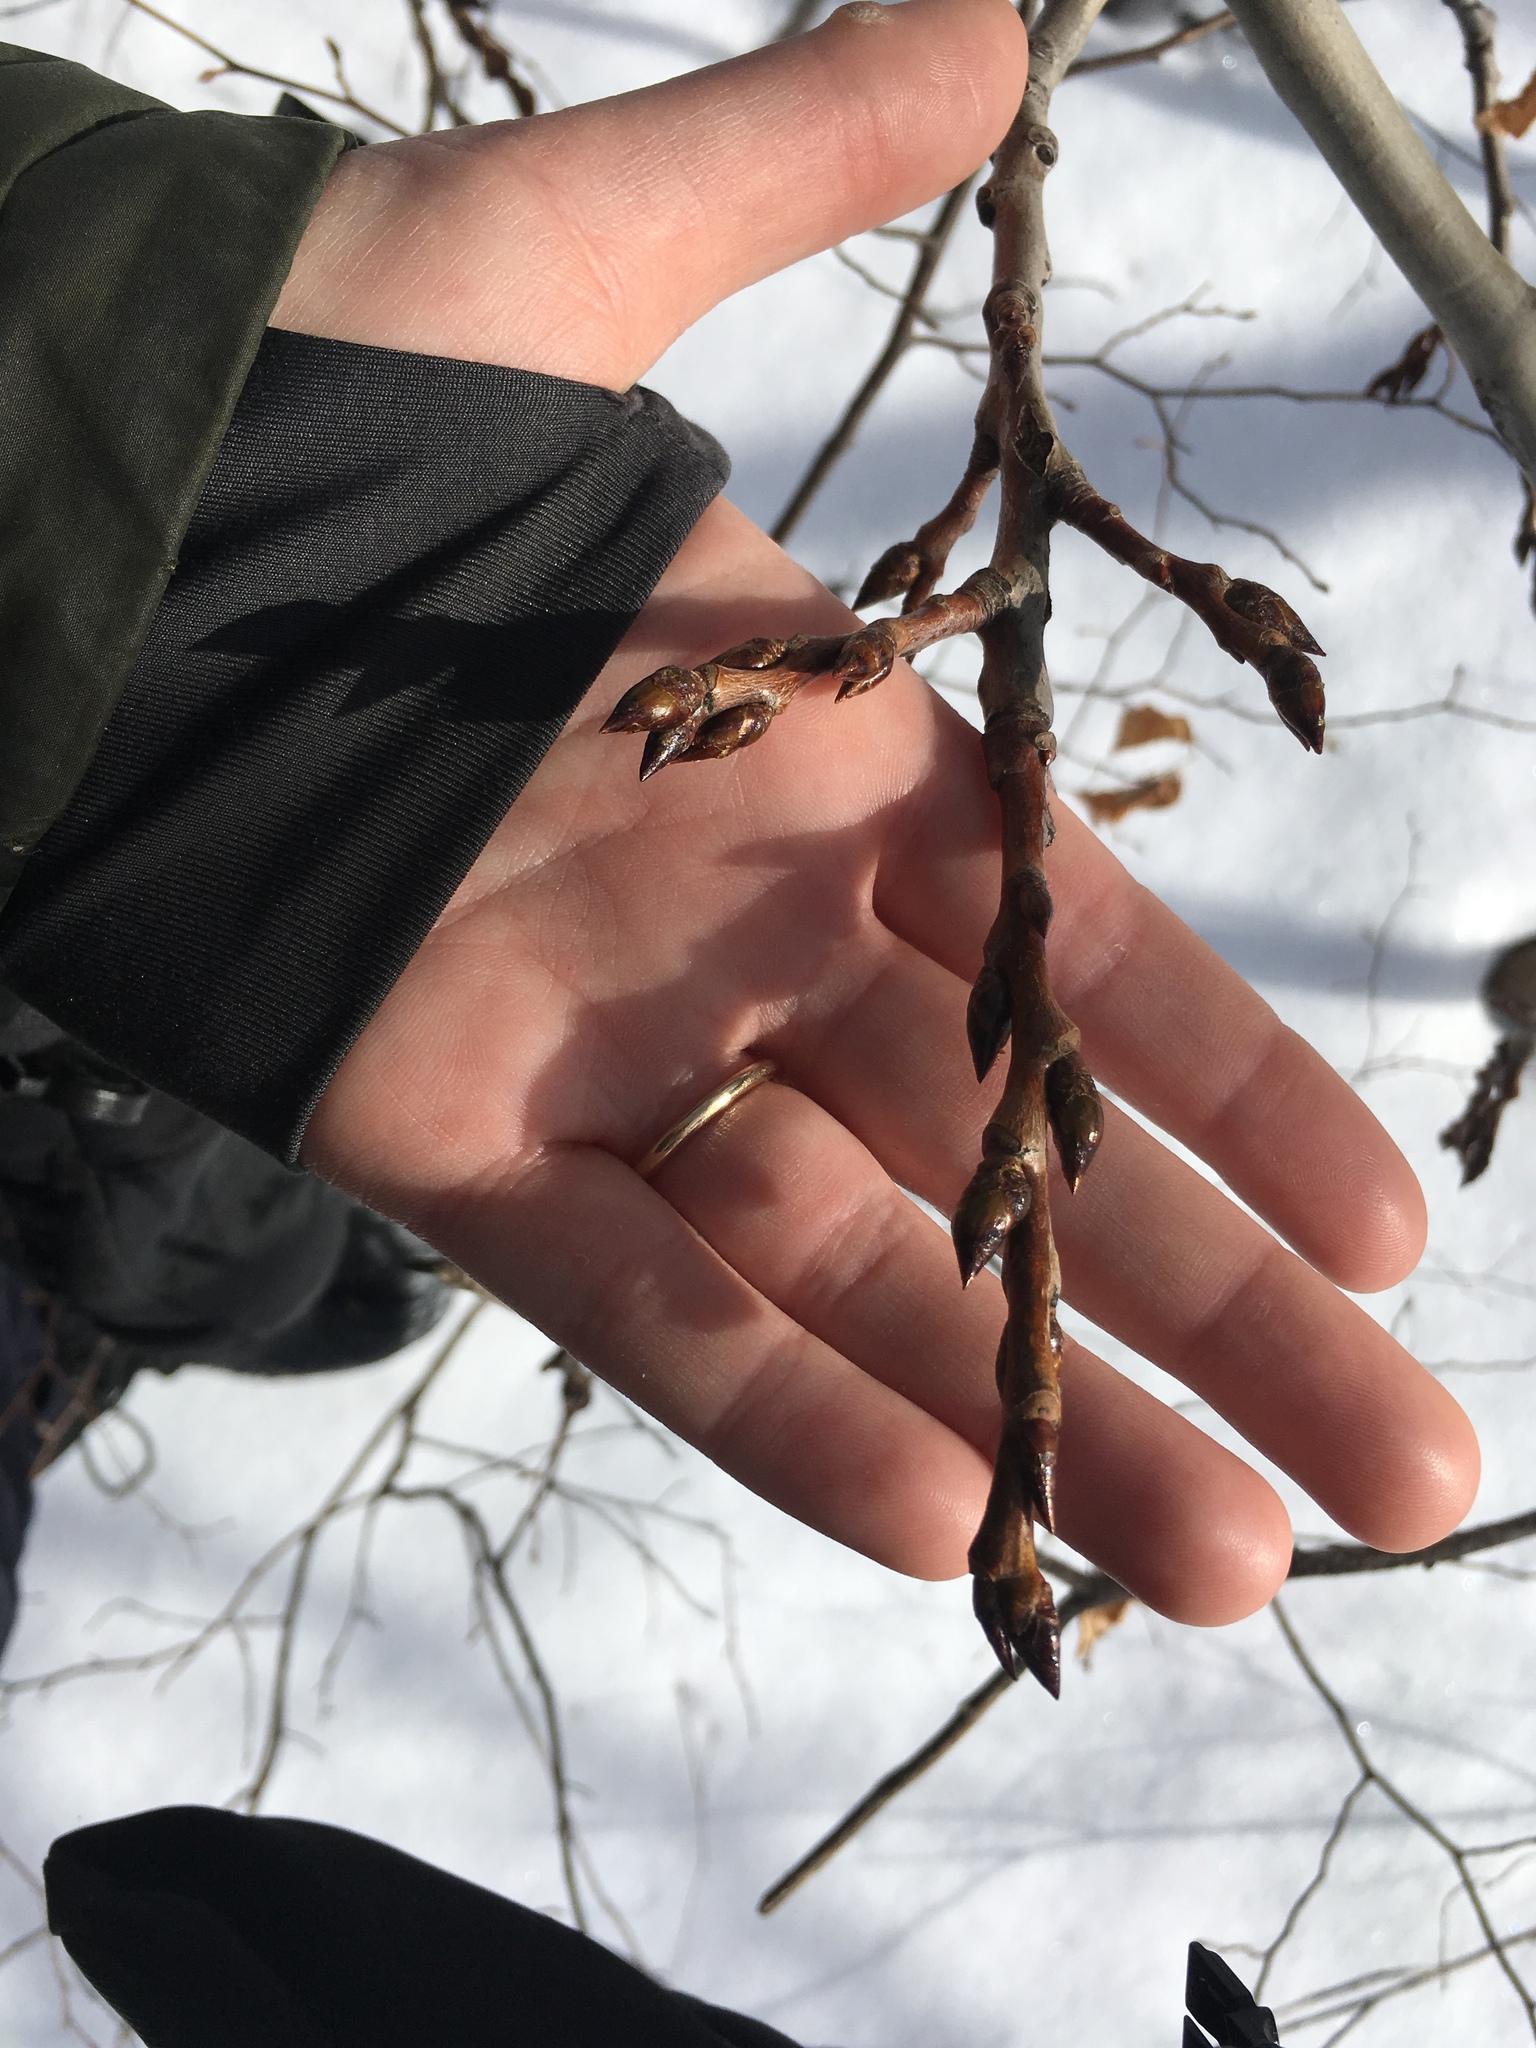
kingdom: Plantae
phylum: Tracheophyta
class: Magnoliopsida
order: Malpighiales
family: Salicaceae
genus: Populus
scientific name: Populus tremuloides
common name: Quaking aspen
